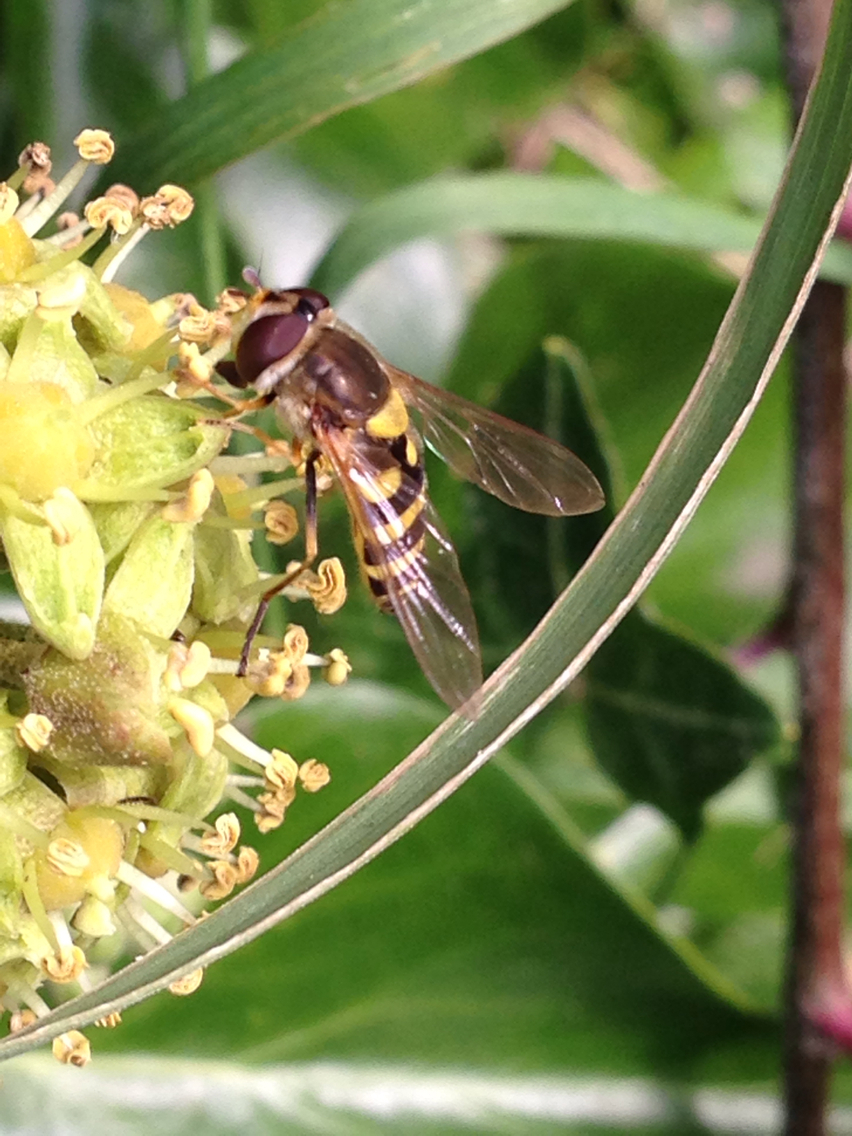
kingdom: Animalia
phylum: Arthropoda
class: Insecta
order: Diptera
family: Syrphidae
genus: Syrphus
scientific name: Syrphus
